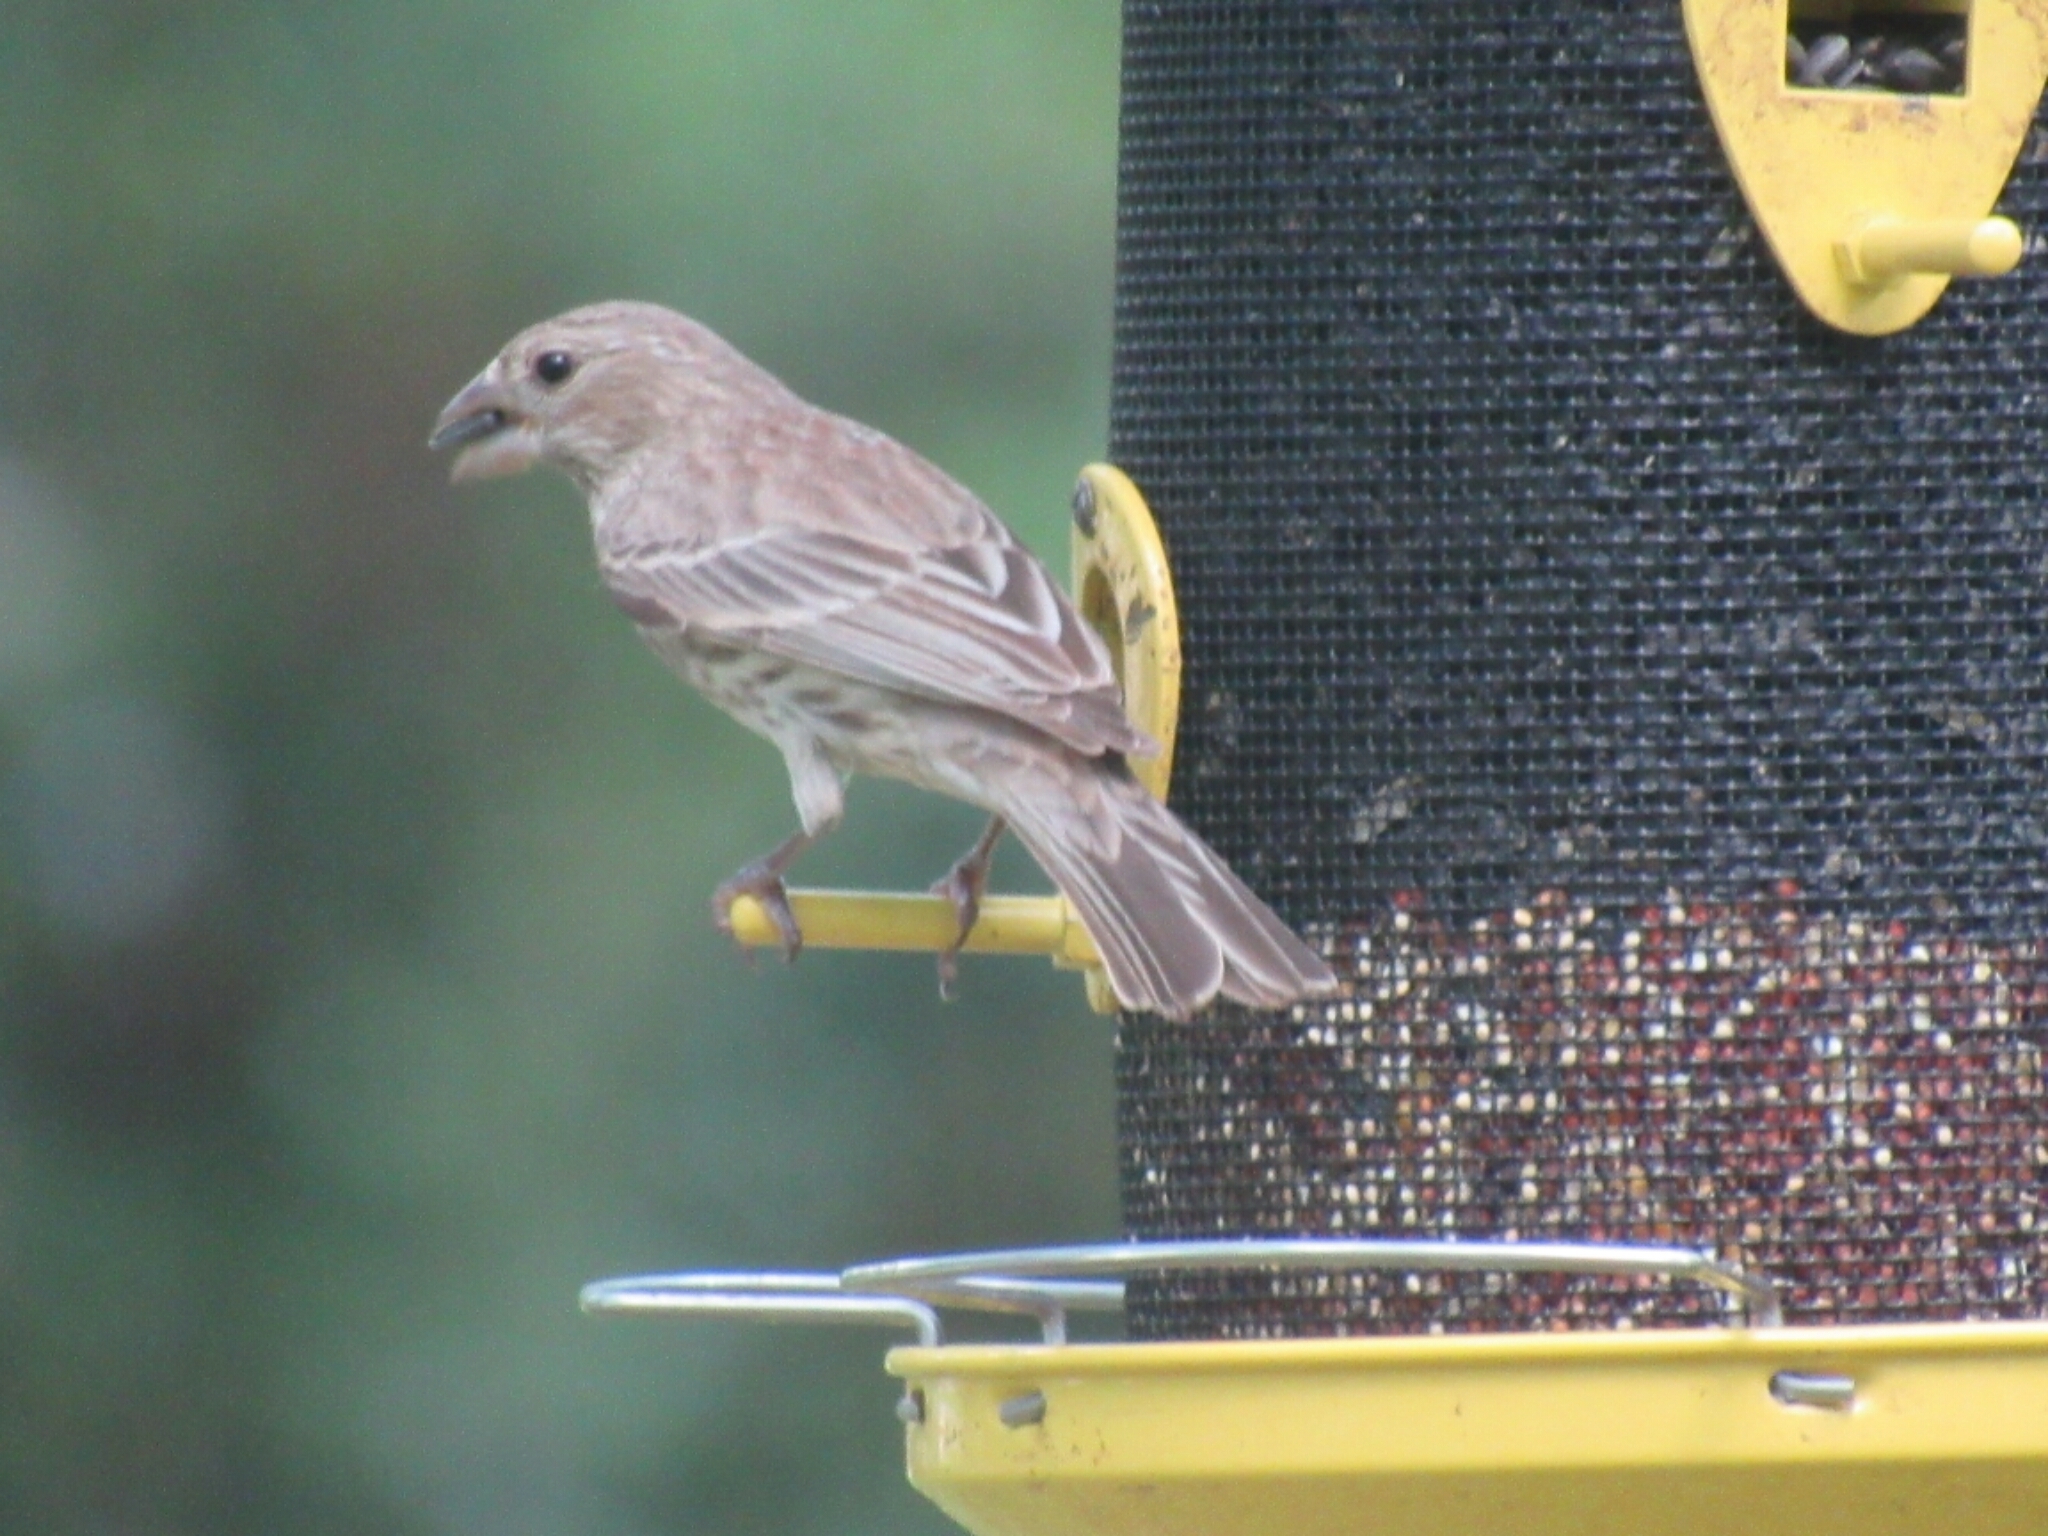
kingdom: Animalia
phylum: Chordata
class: Aves
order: Passeriformes
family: Fringillidae
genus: Haemorhous
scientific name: Haemorhous mexicanus
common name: House finch
